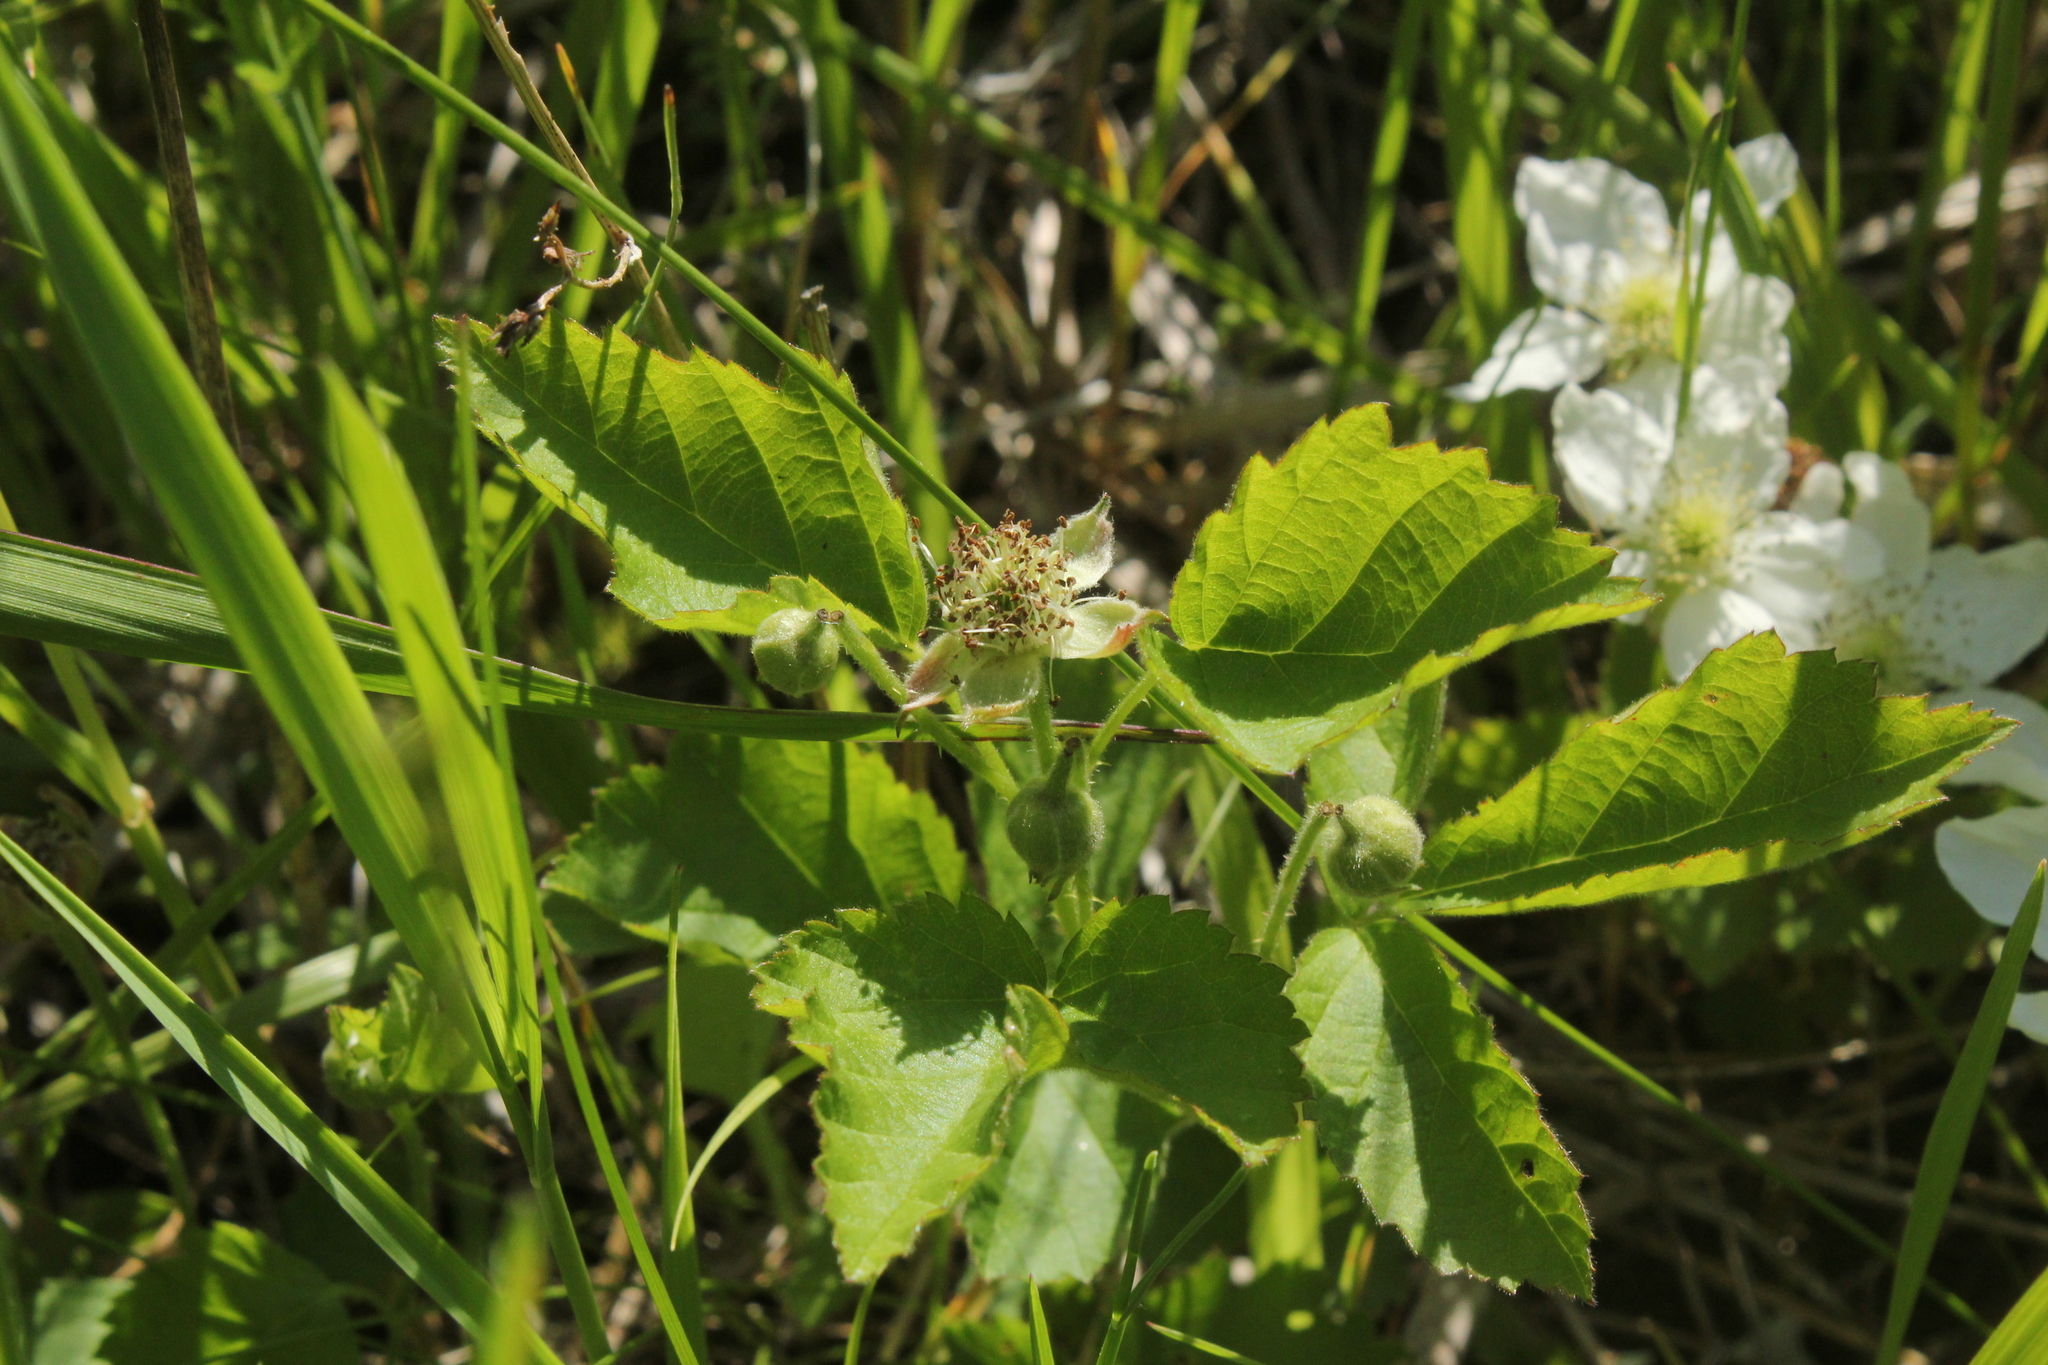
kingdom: Plantae
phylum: Tracheophyta
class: Magnoliopsida
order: Rosales
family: Rosaceae
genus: Rubus
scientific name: Rubus setosus
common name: Bristly blackberry
